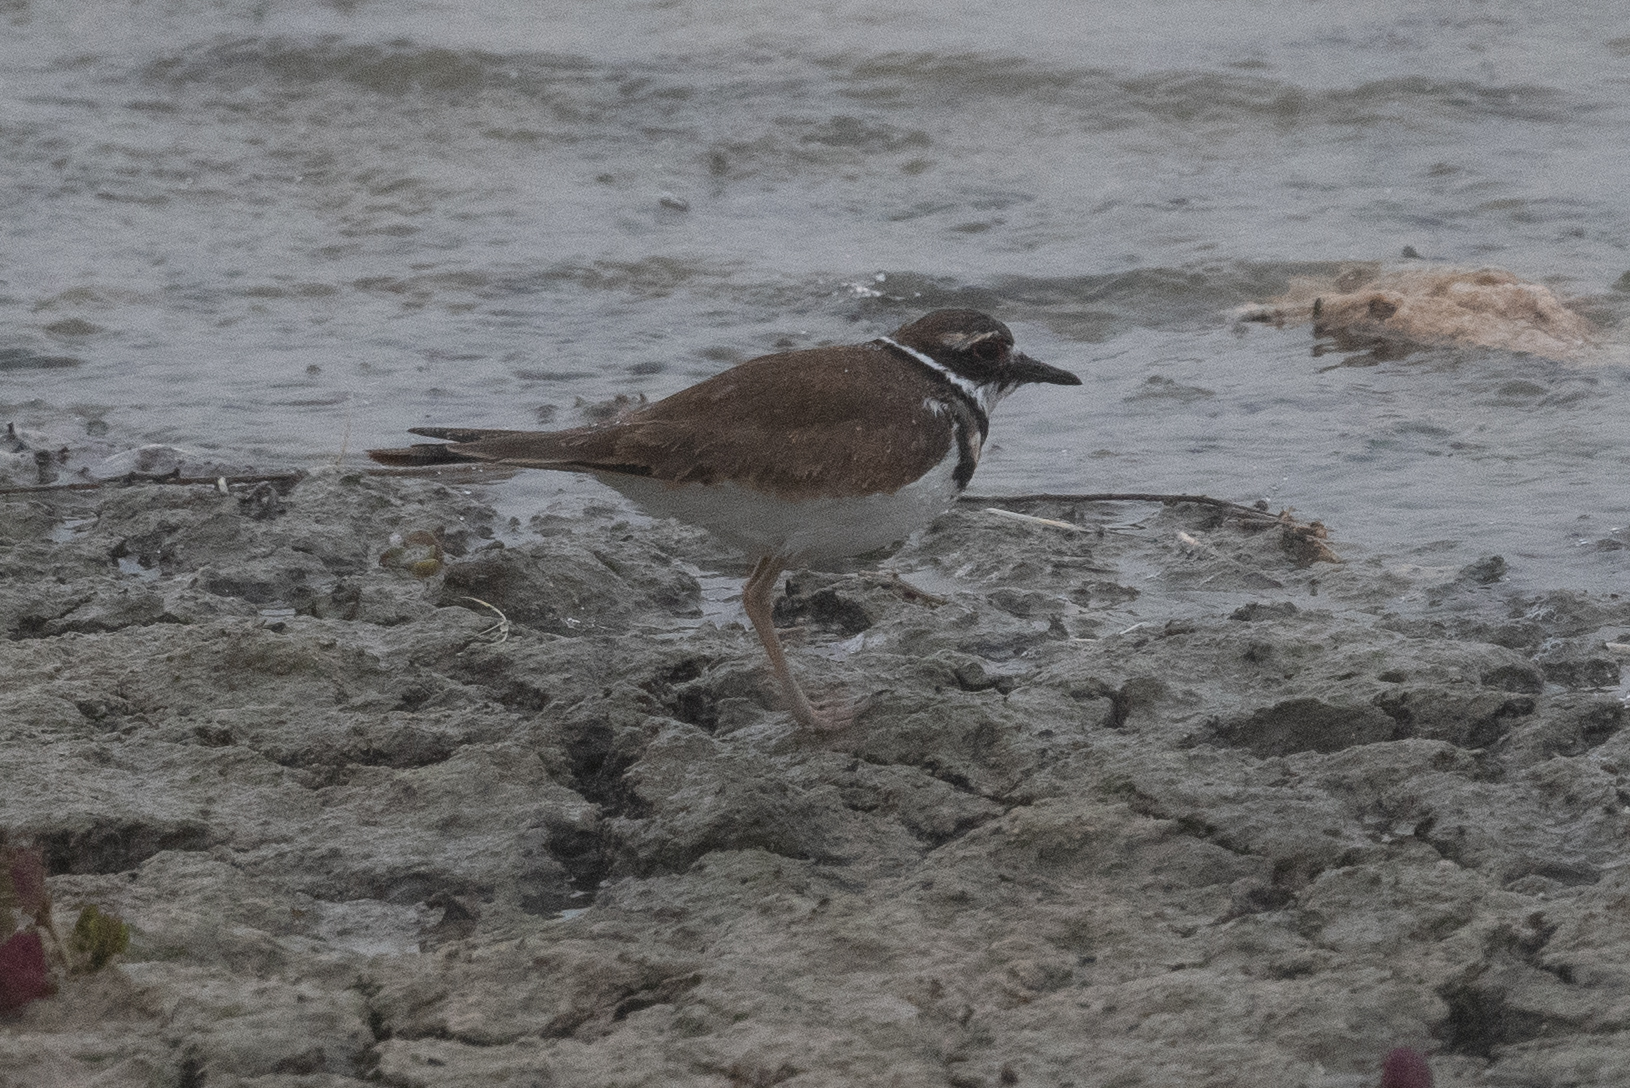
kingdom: Animalia
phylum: Chordata
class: Aves
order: Charadriiformes
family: Charadriidae
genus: Charadrius
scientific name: Charadrius vociferus
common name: Killdeer
